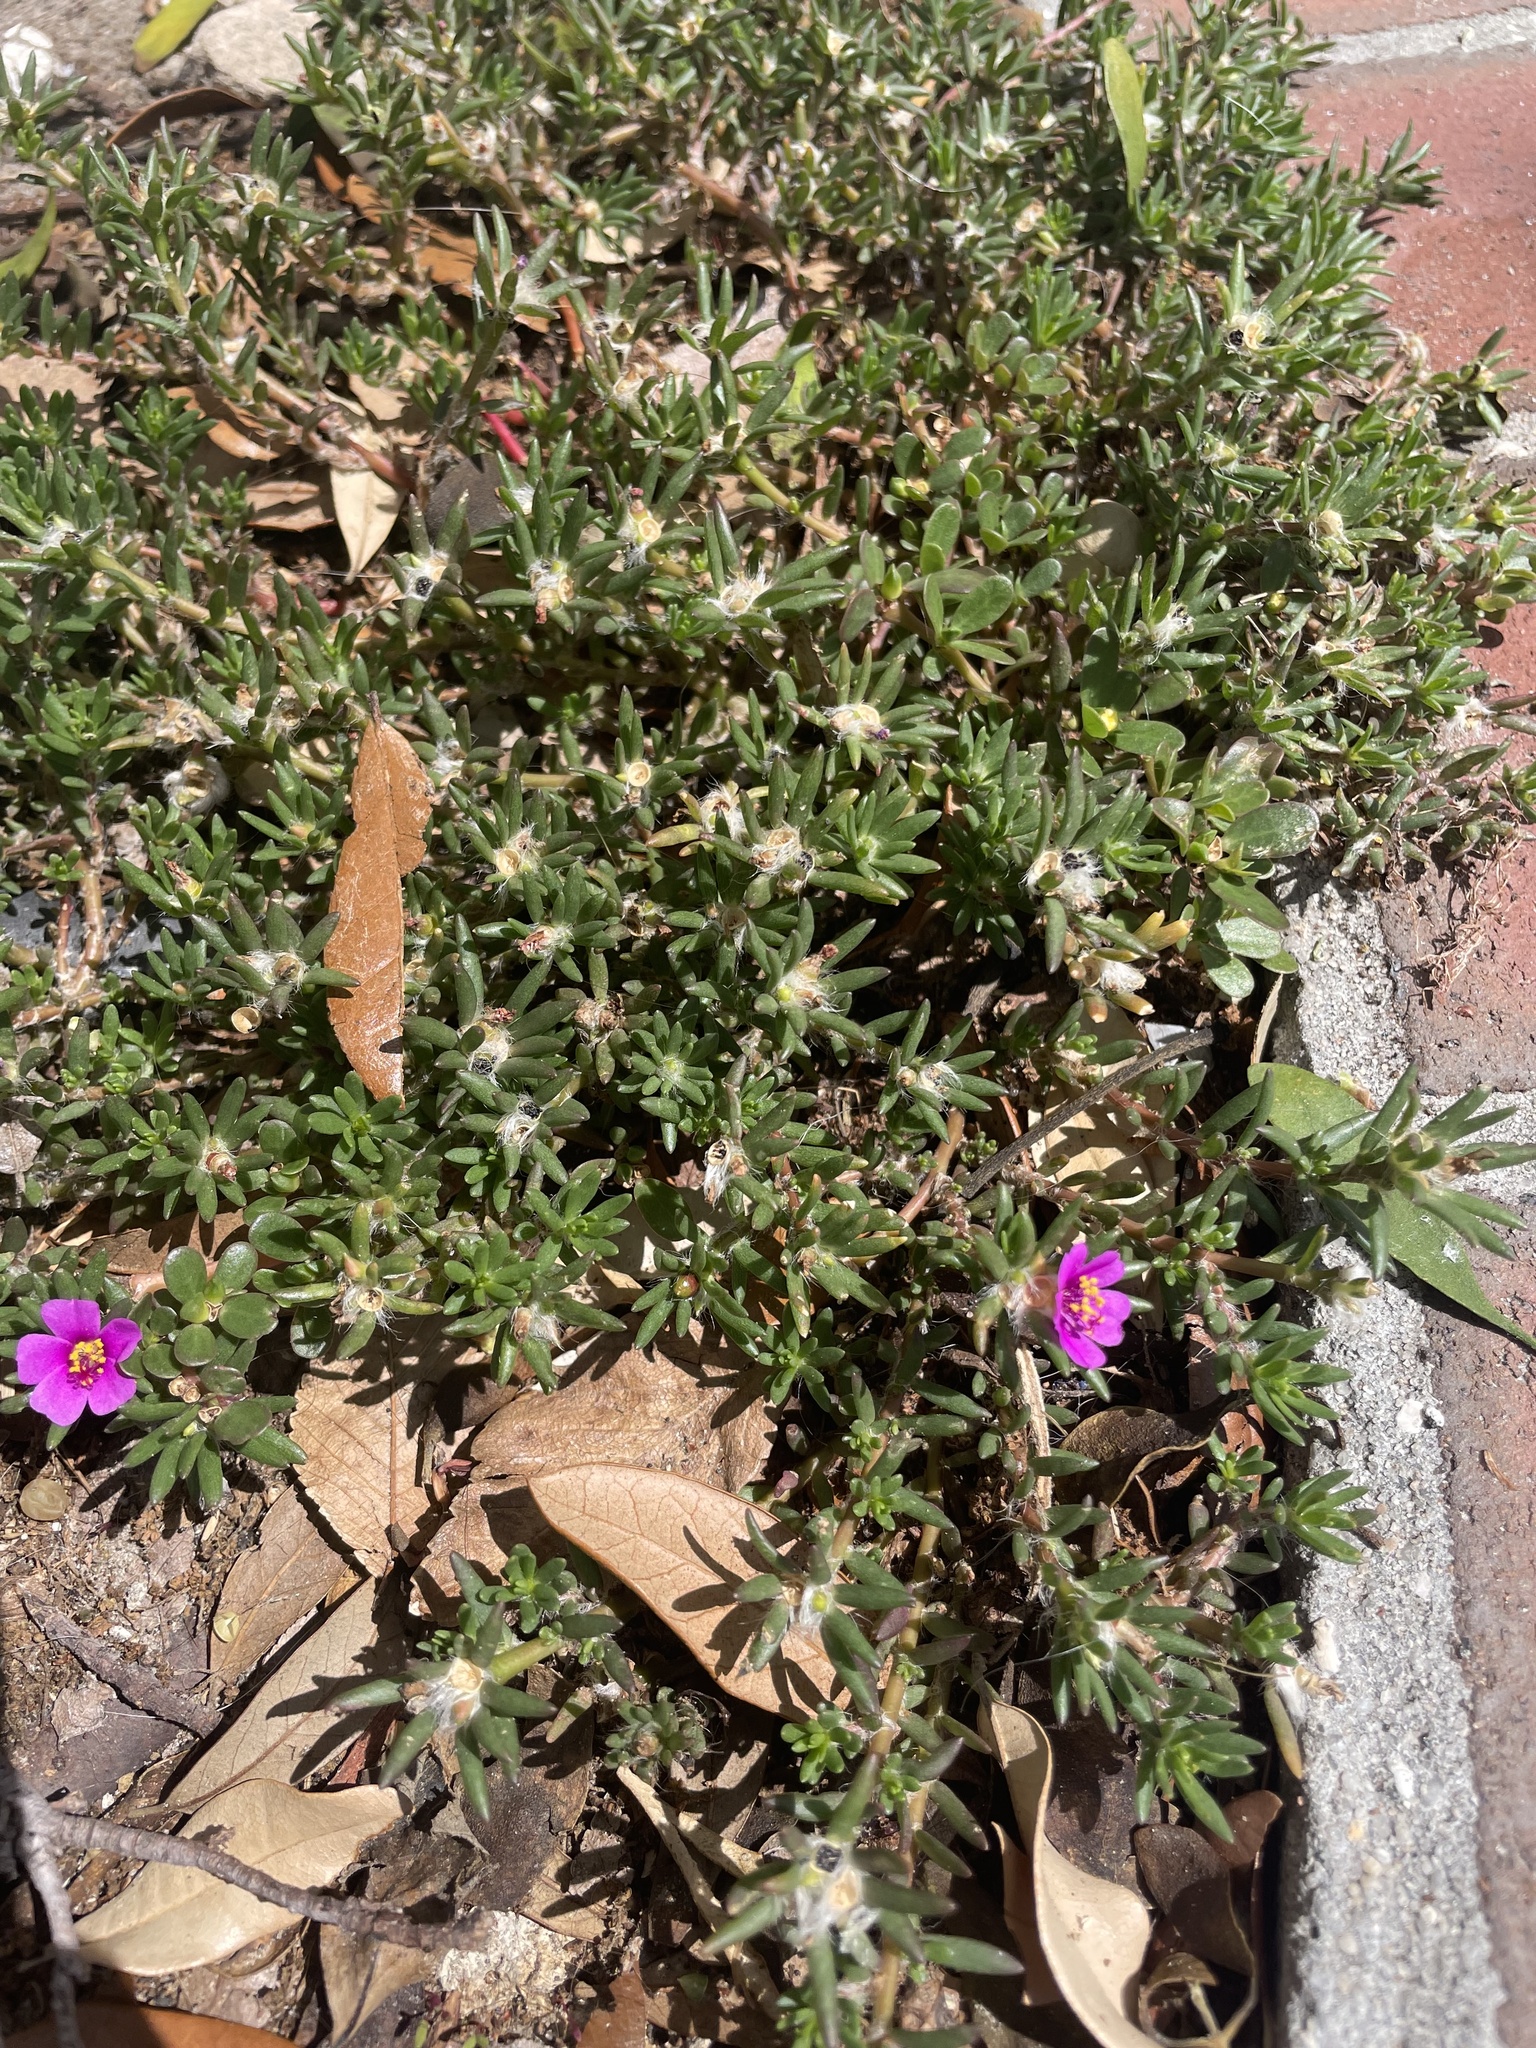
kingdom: Plantae
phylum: Tracheophyta
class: Magnoliopsida
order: Caryophyllales
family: Portulacaceae
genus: Portulaca
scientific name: Portulaca pilosa
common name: Kiss me quick
